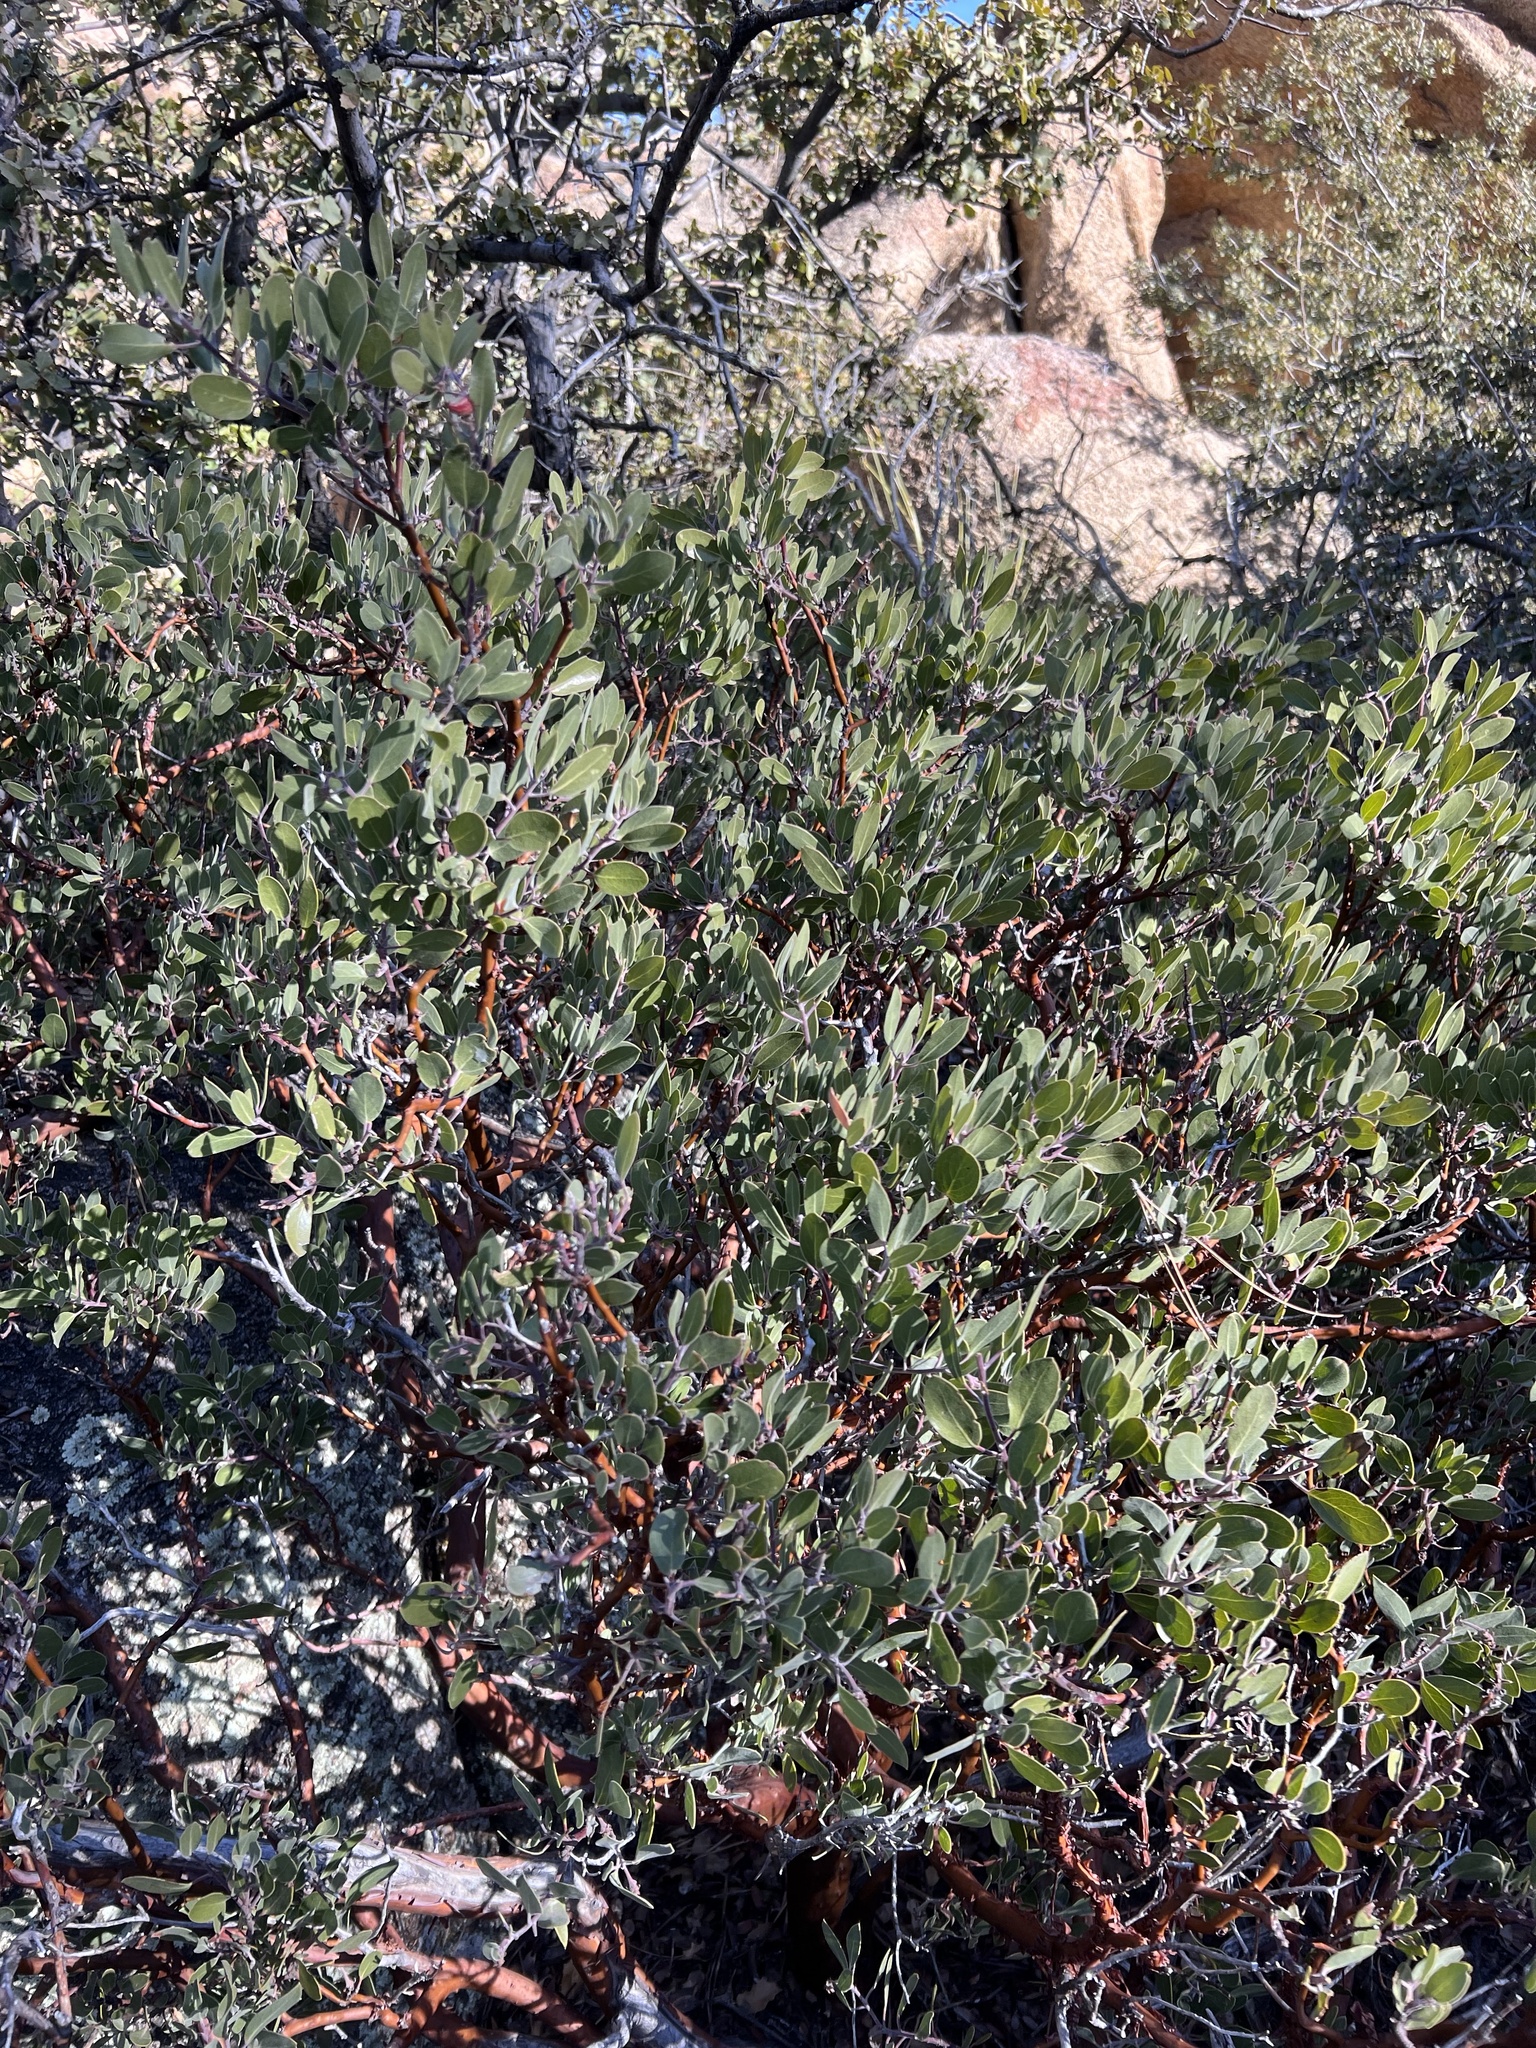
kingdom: Plantae
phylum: Tracheophyta
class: Magnoliopsida
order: Ericales
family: Ericaceae
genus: Arctostaphylos
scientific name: Arctostaphylos pungens
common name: Mexican manzanita
